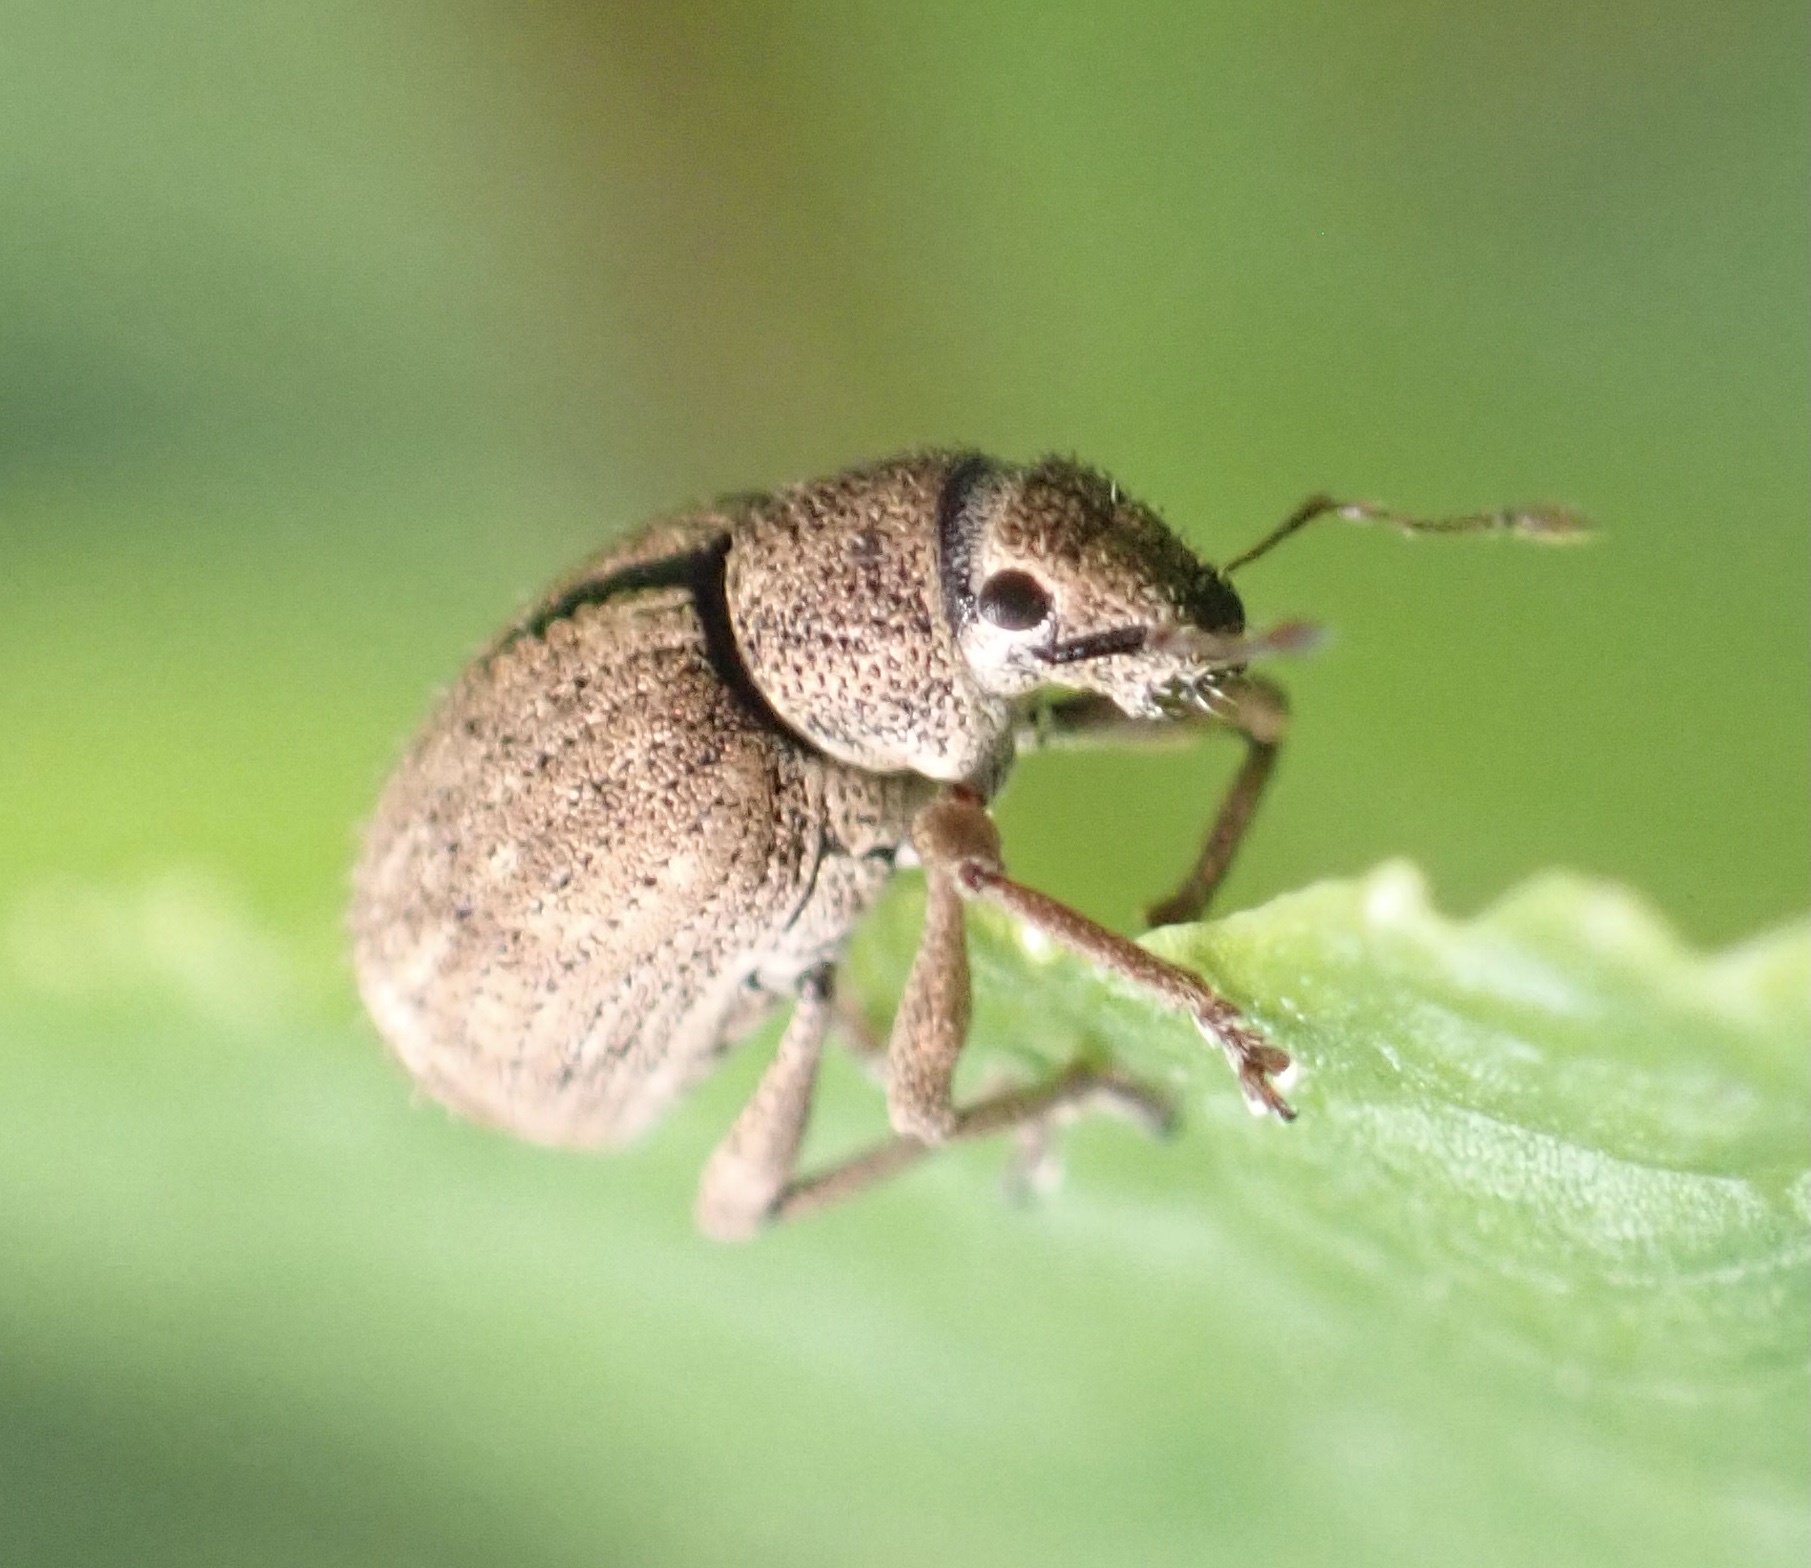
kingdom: Animalia
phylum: Arthropoda
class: Insecta
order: Coleoptera
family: Curculionidae
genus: Strophosoma
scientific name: Strophosoma melanogrammum
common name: Weevil
